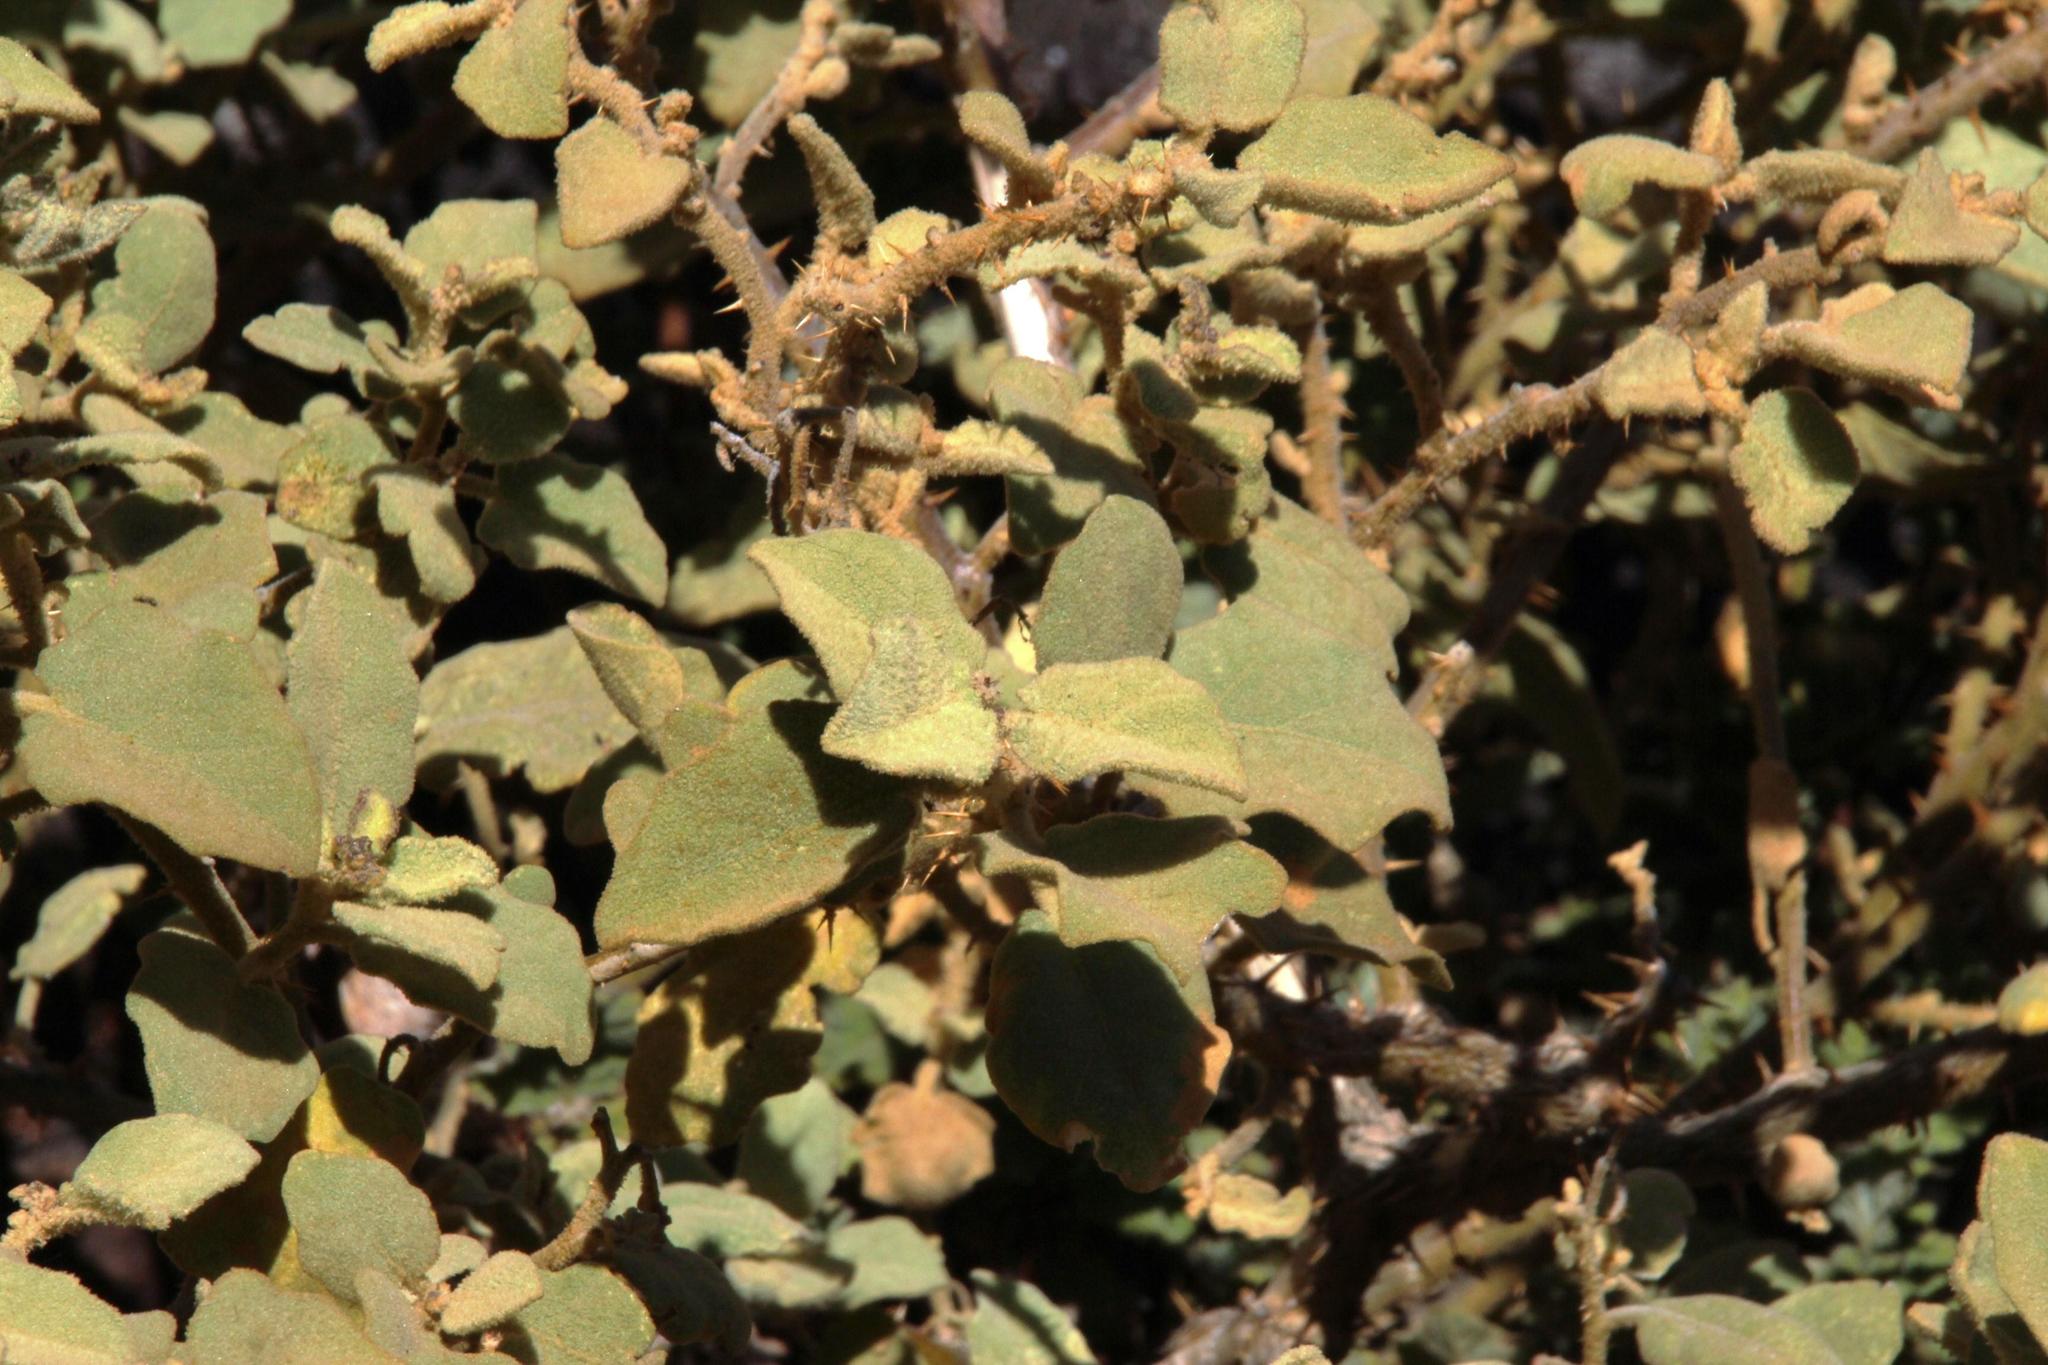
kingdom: Plantae
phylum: Tracheophyta
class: Magnoliopsida
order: Solanales
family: Solanaceae
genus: Solanum
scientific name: Solanum tomentosum
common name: Wild aubergine
